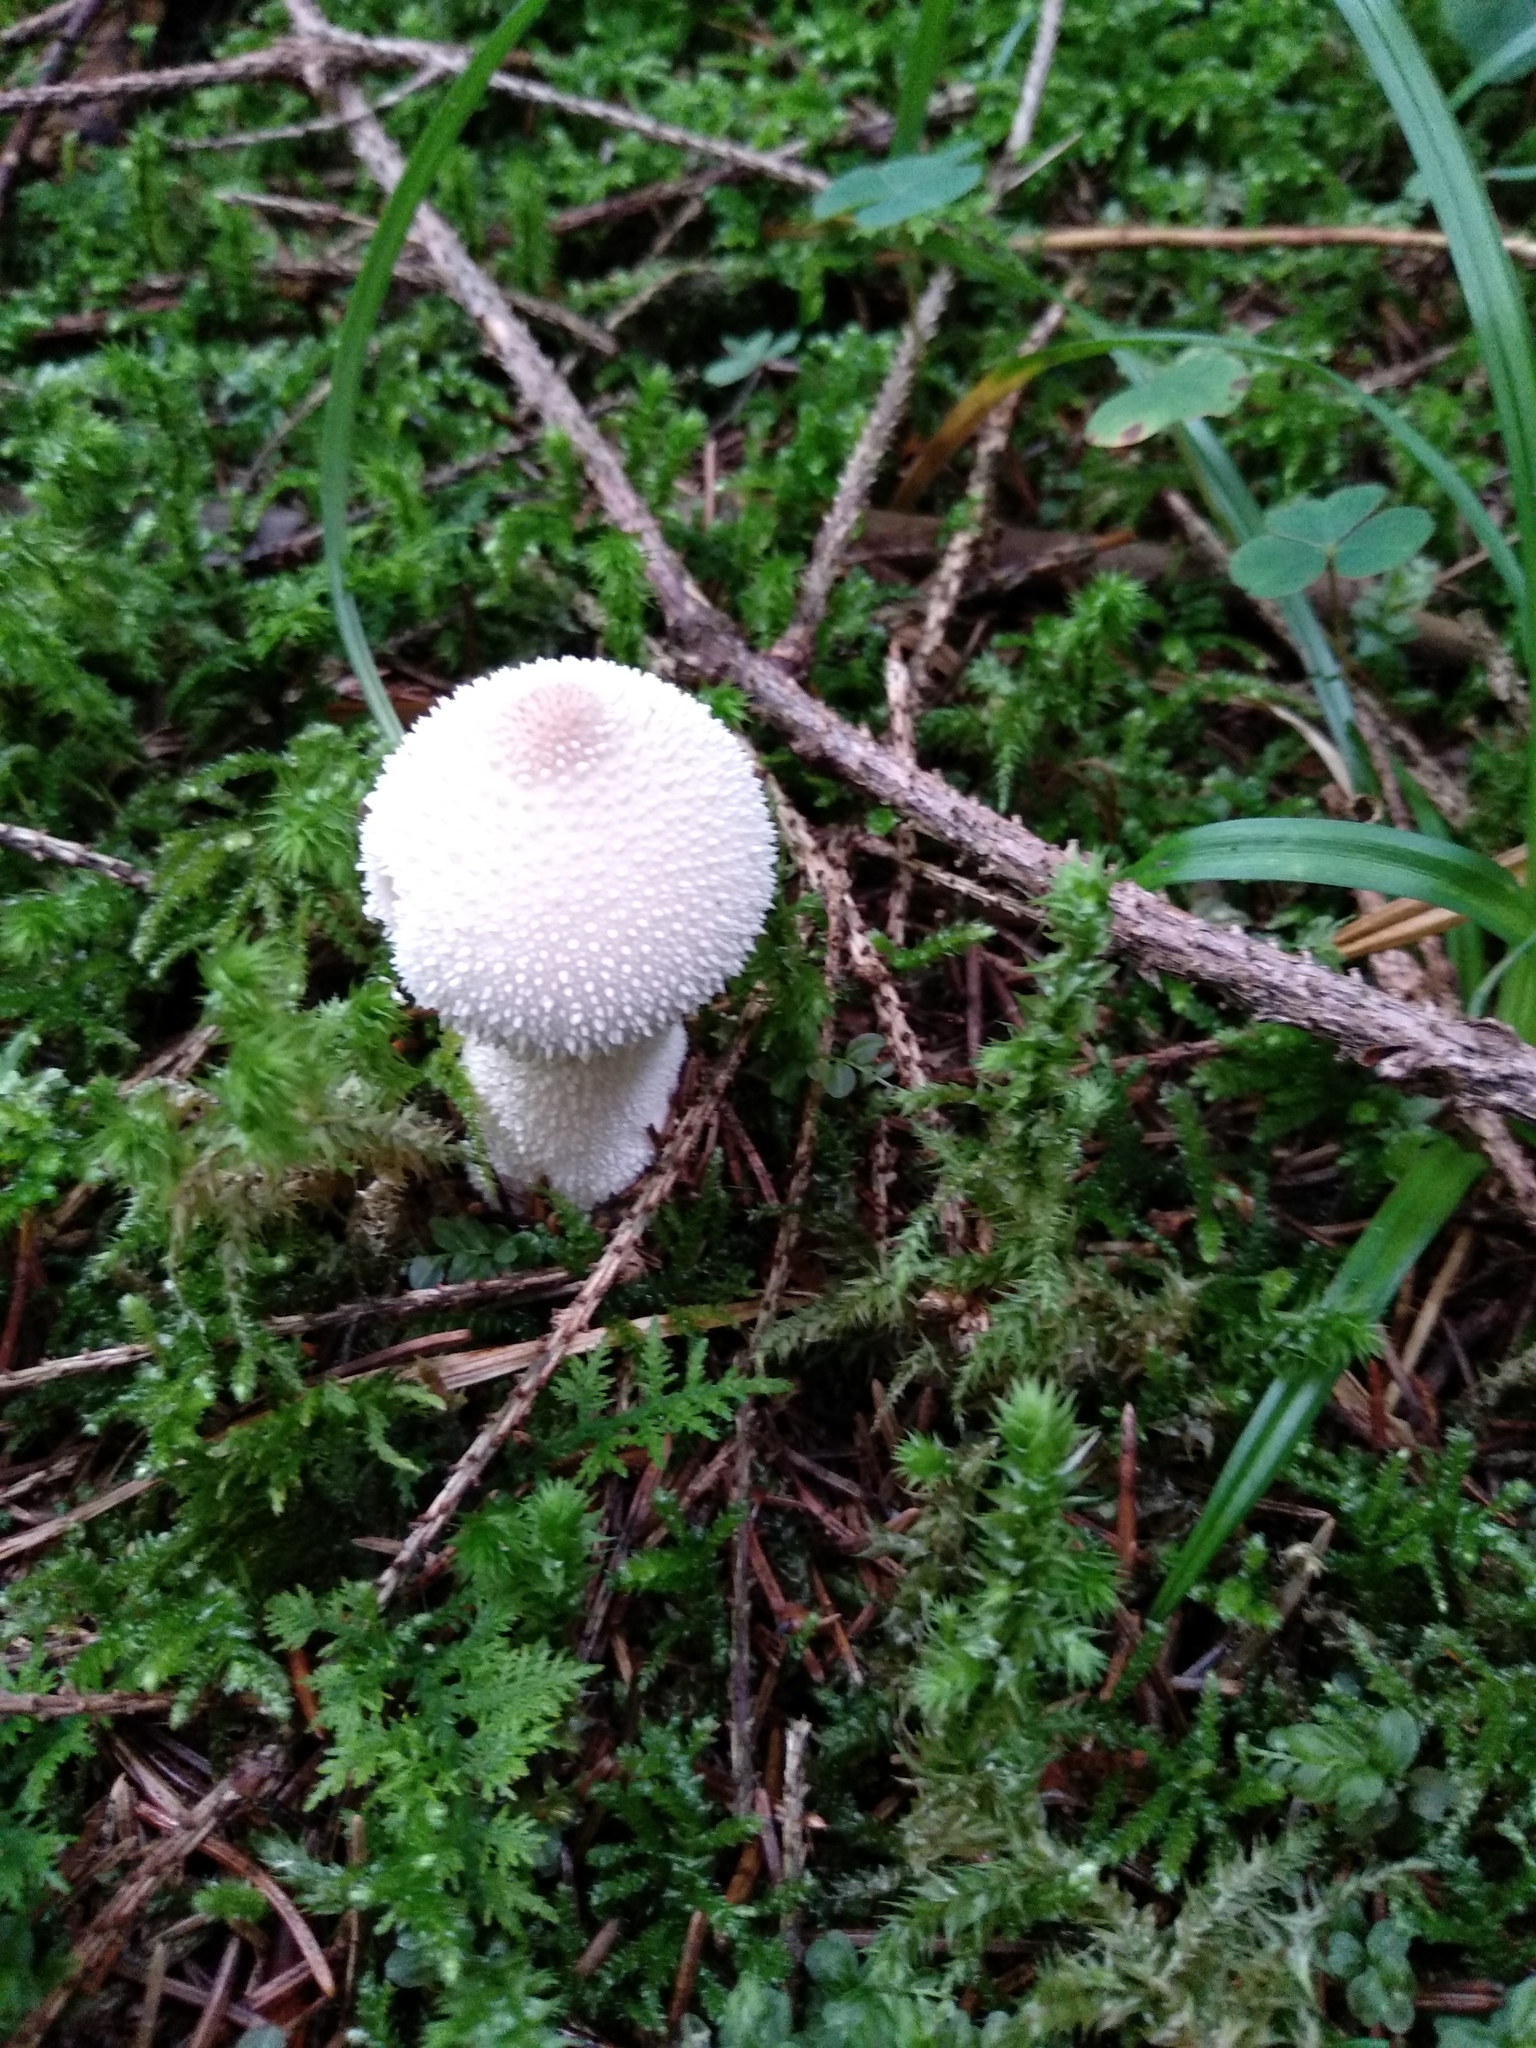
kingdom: Fungi
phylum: Basidiomycota
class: Agaricomycetes
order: Agaricales
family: Lycoperdaceae
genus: Lycoperdon
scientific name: Lycoperdon perlatum
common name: Common puffball
